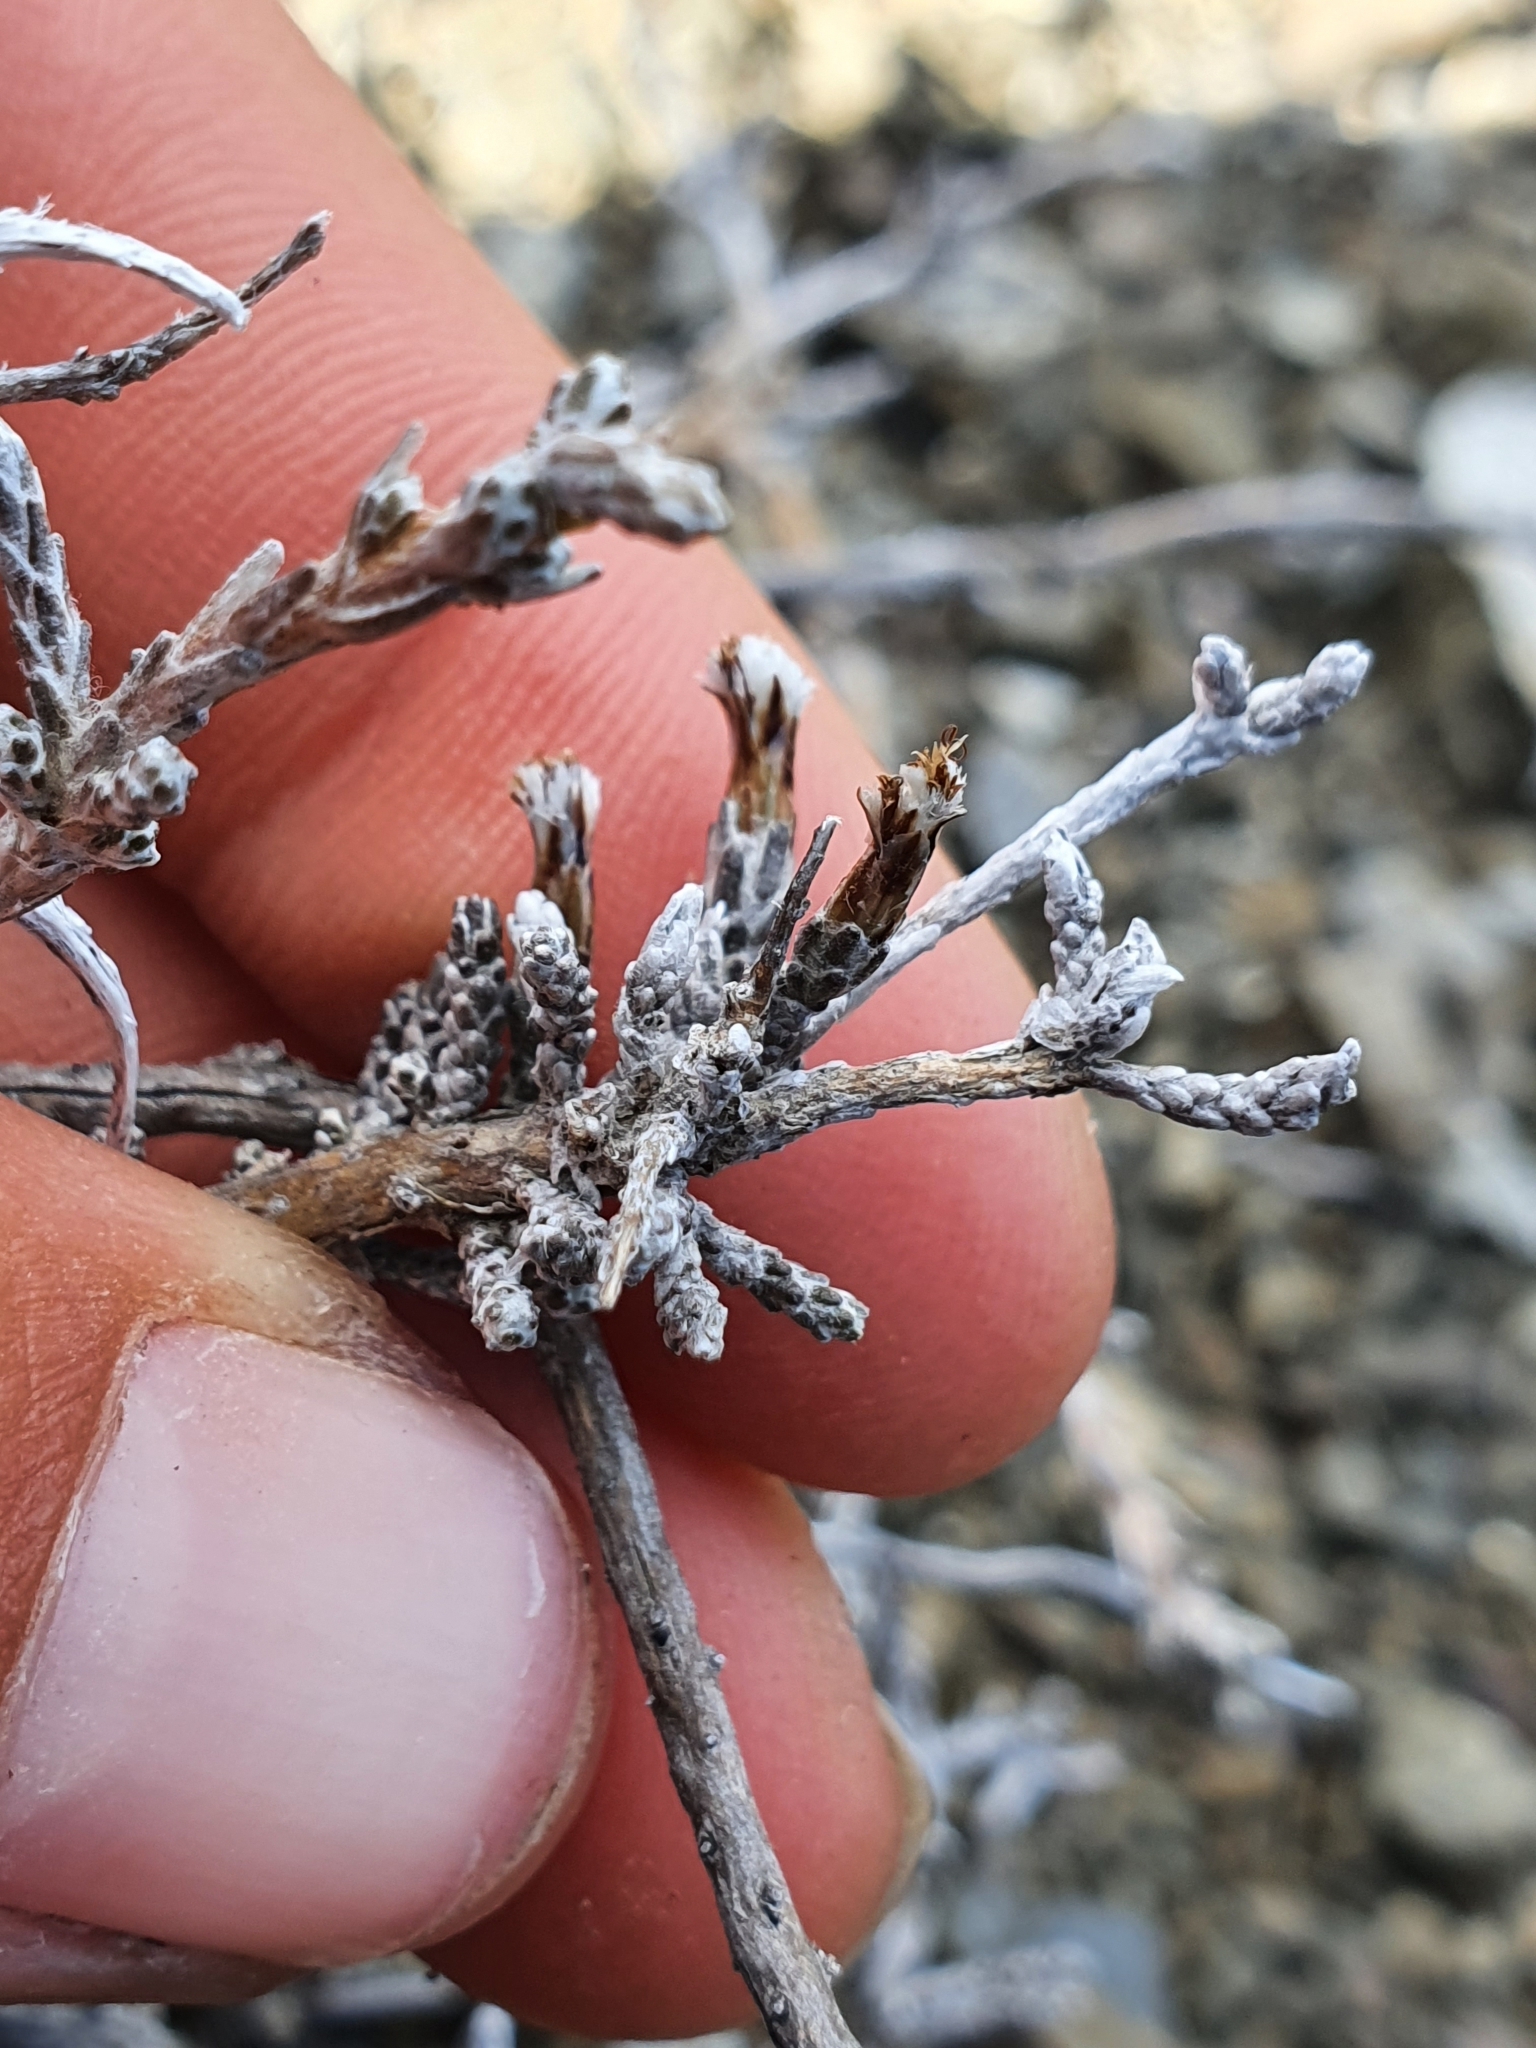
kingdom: Plantae
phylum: Tracheophyta
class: Magnoliopsida
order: Asterales
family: Asteraceae
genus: Ozothamnus
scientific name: Ozothamnus depressus
